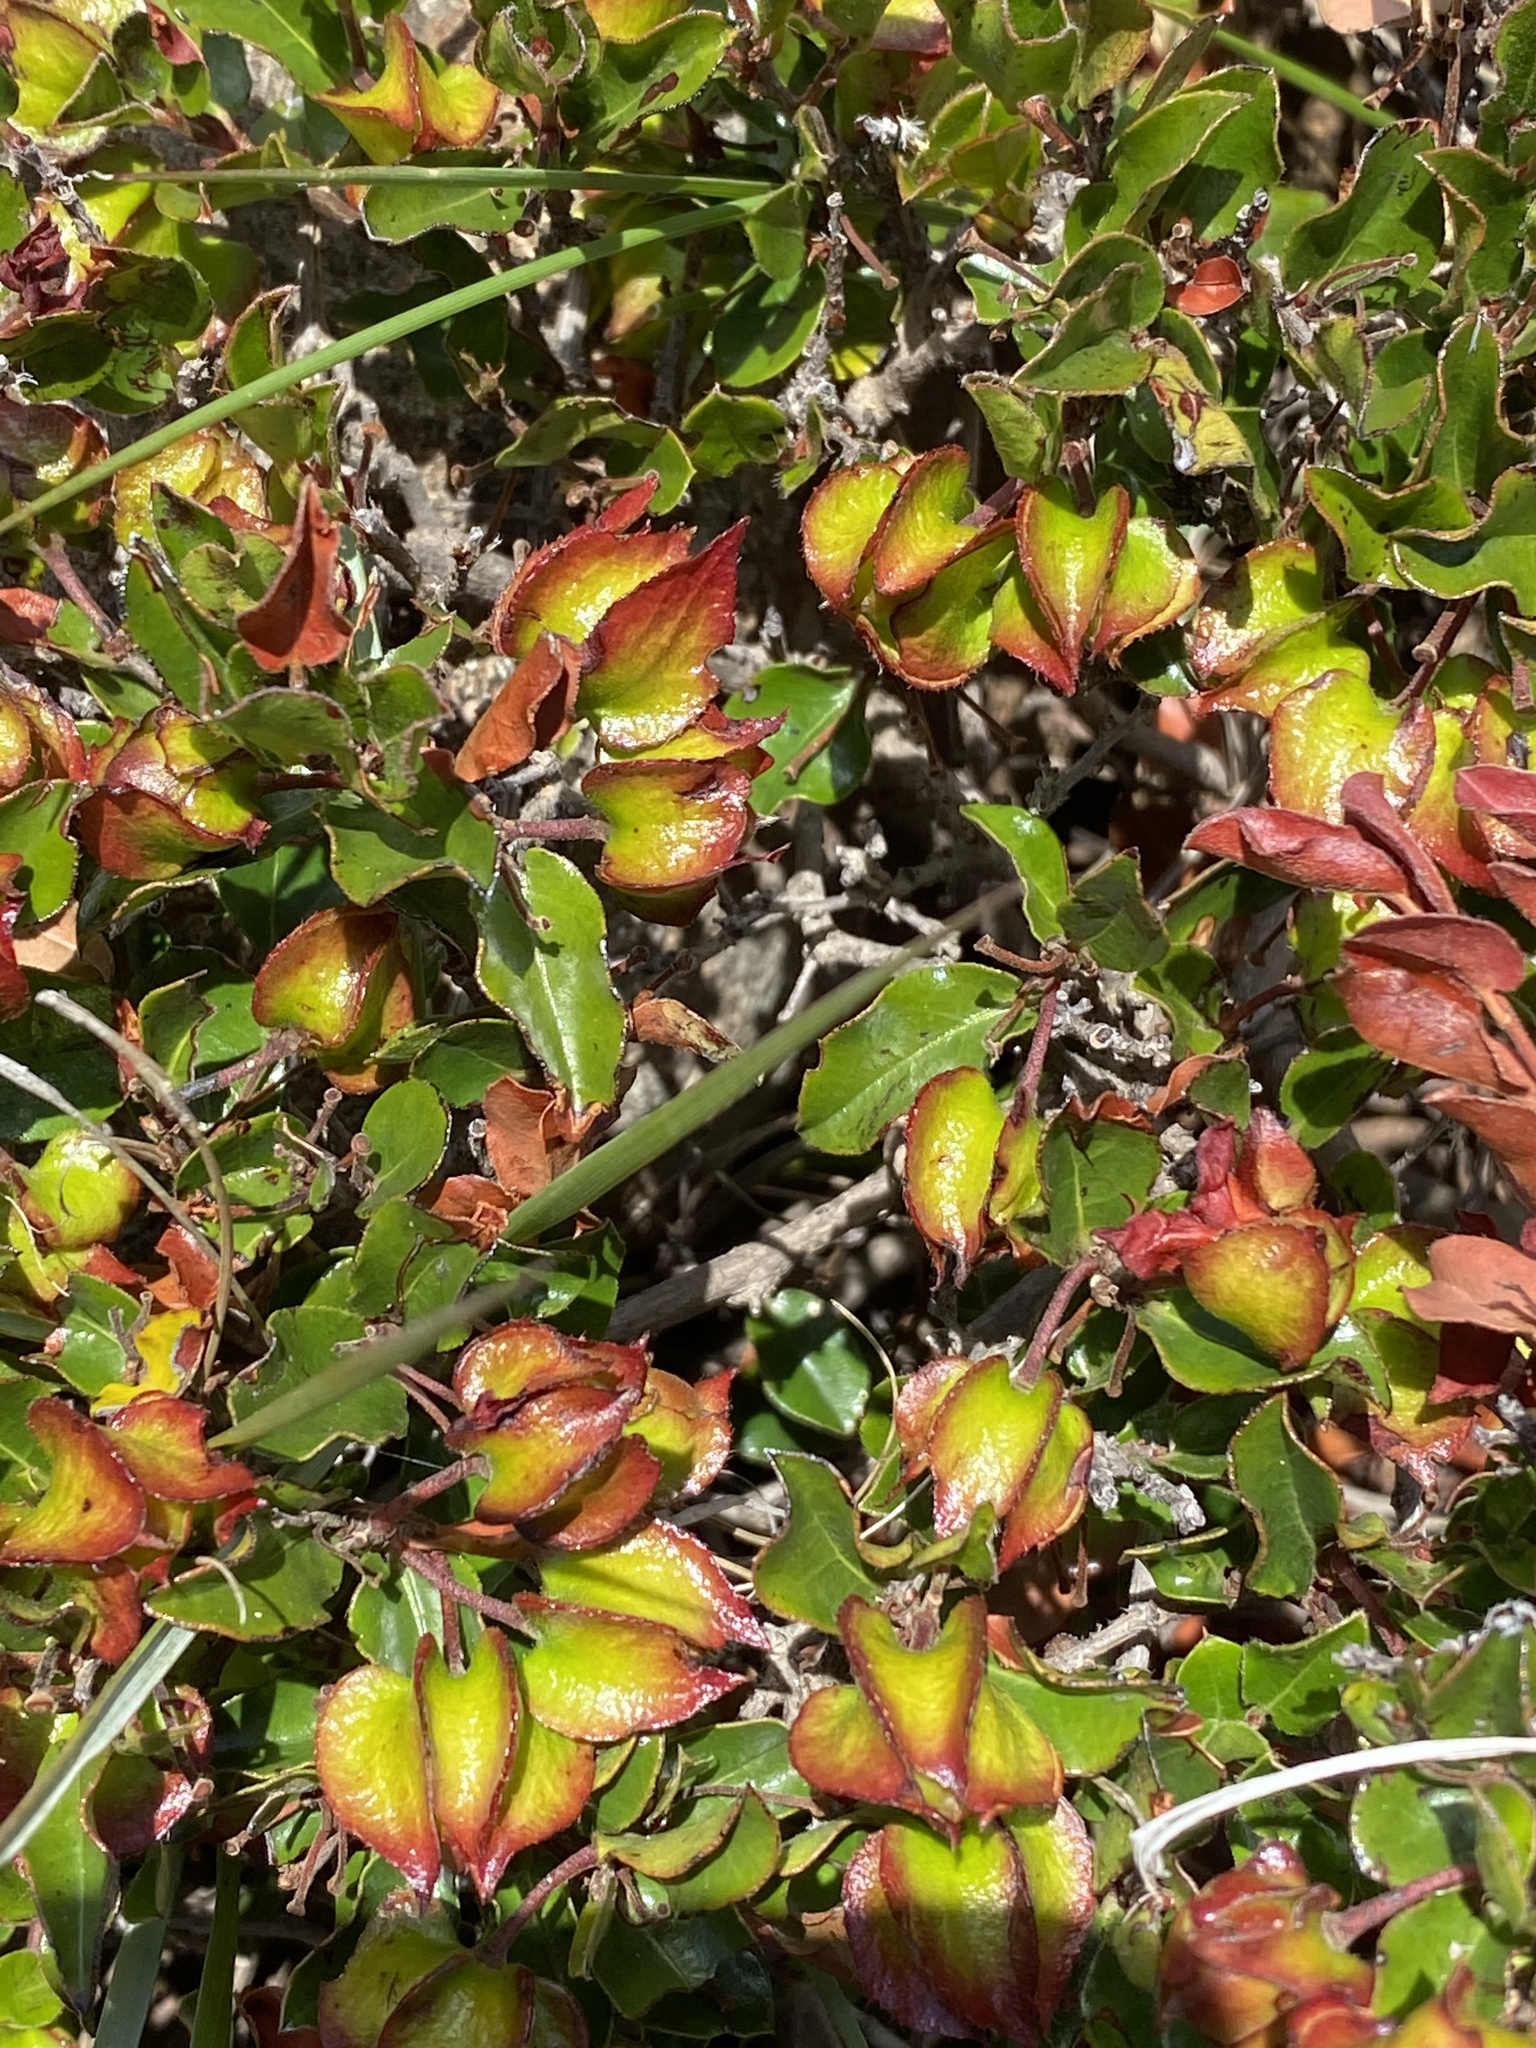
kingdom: Plantae
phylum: Tracheophyta
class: Magnoliopsida
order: Ericales
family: Ebenaceae
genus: Diospyros
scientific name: Diospyros scabrida
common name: Coastal bladder-nut
